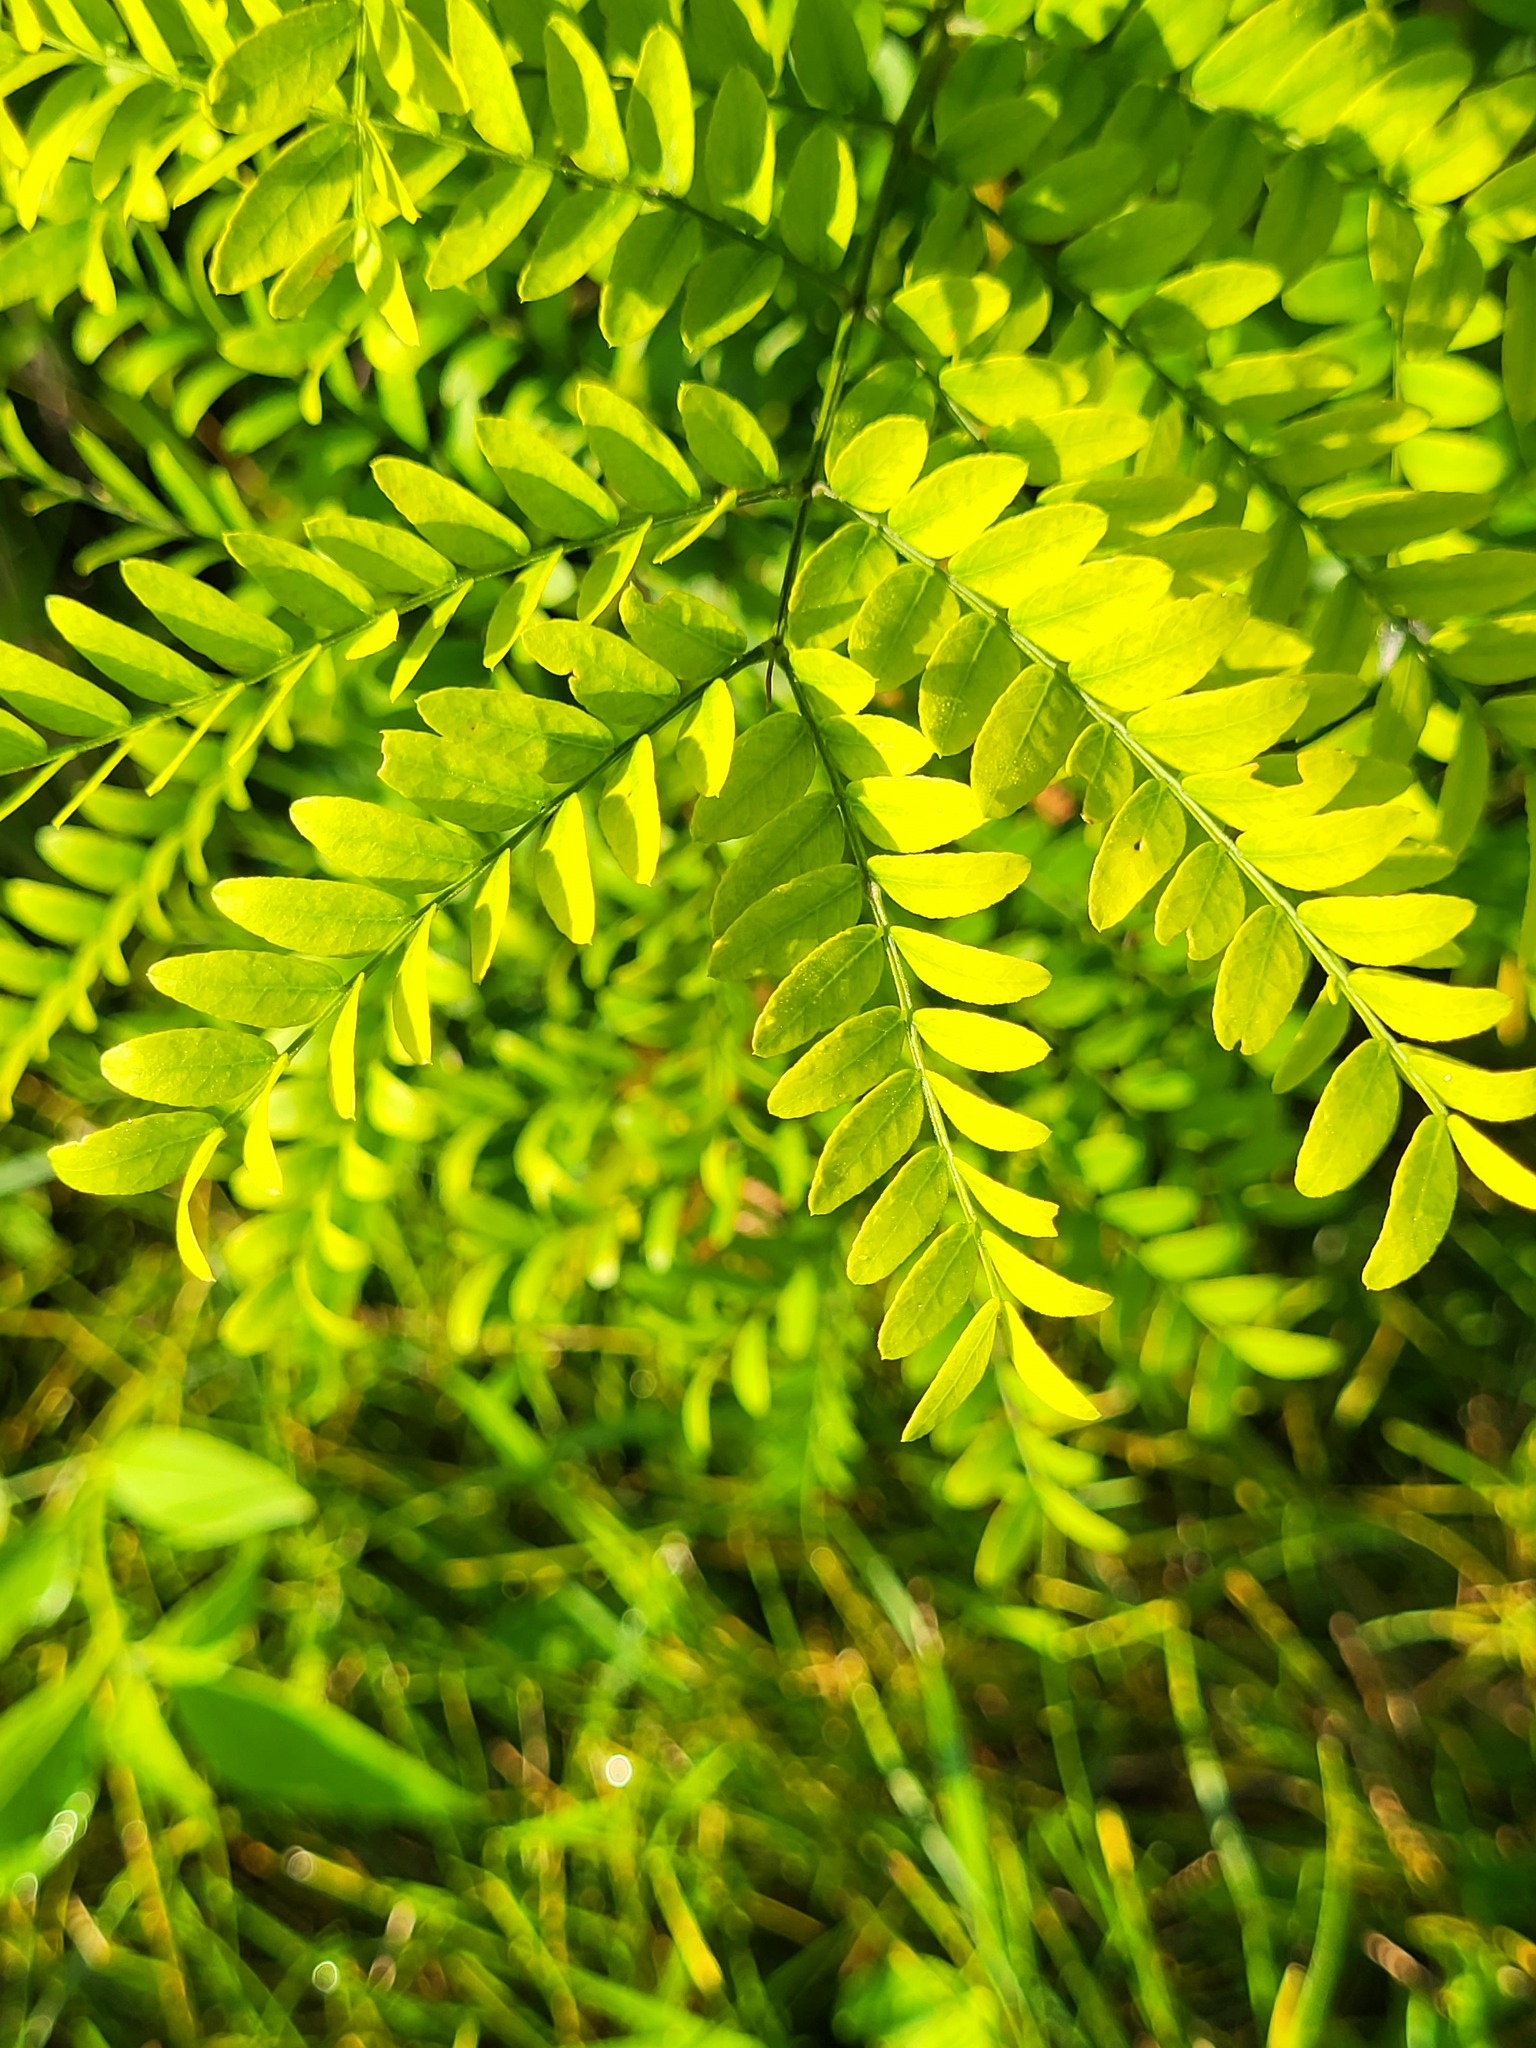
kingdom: Plantae
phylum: Tracheophyta
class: Magnoliopsida
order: Fabales
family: Fabaceae
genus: Gleditsia
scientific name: Gleditsia triacanthos
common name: Common honeylocust
